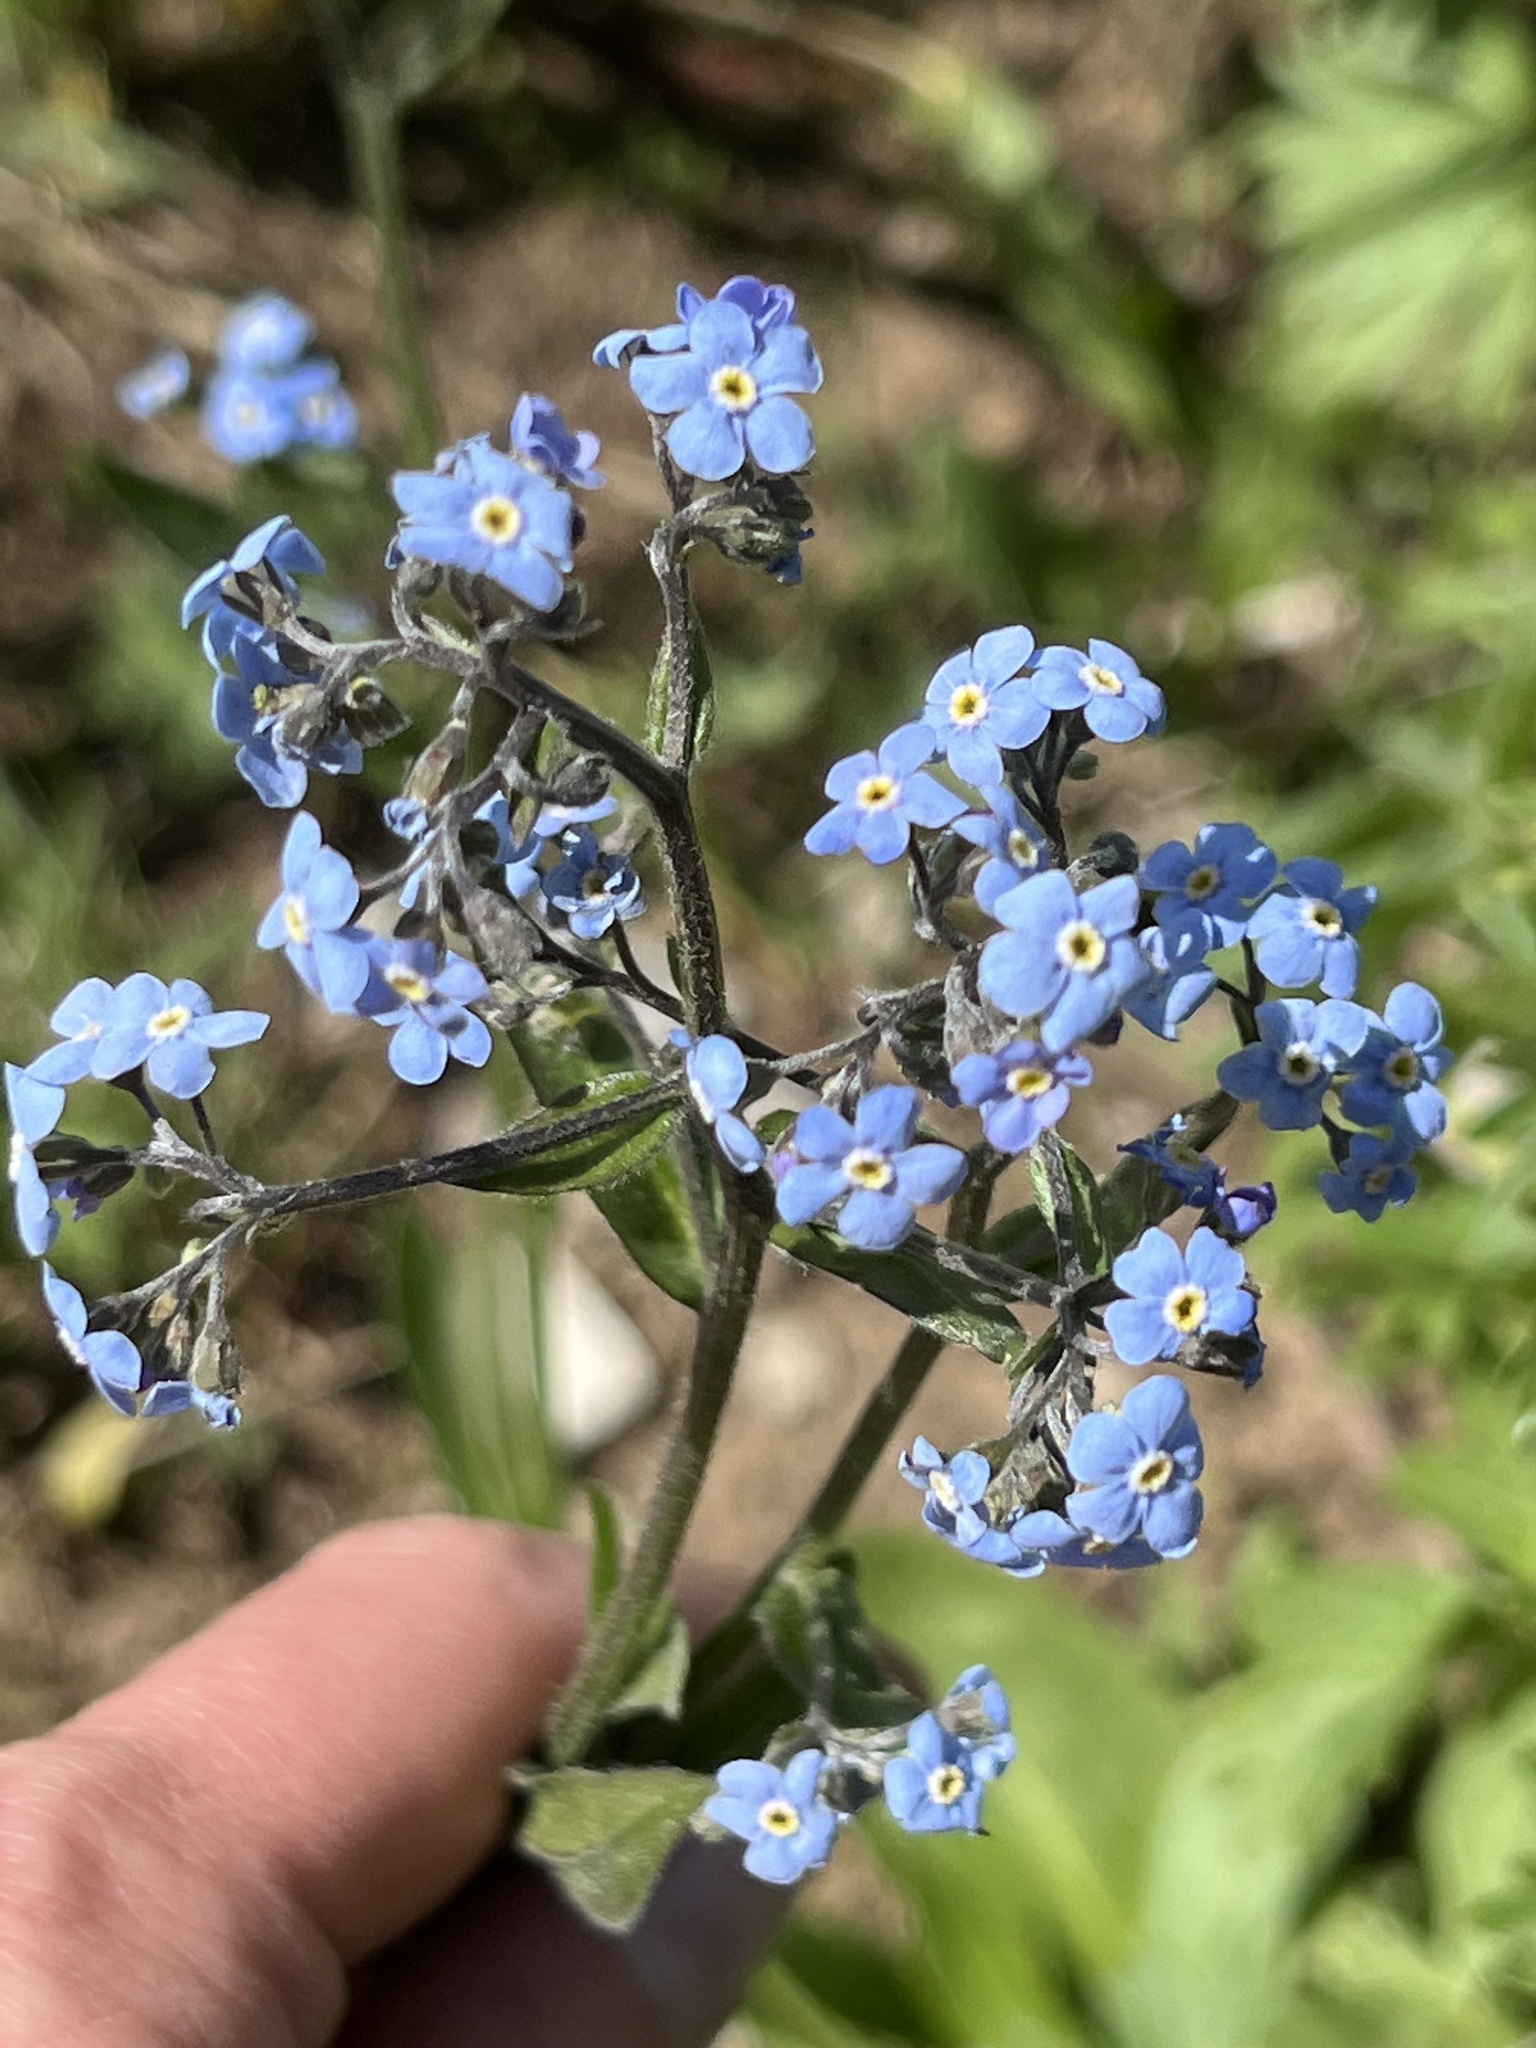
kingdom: Plantae
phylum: Tracheophyta
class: Magnoliopsida
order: Boraginales
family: Boraginaceae
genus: Hackelia
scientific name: Hackelia micrantha
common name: Meadow stickseed
